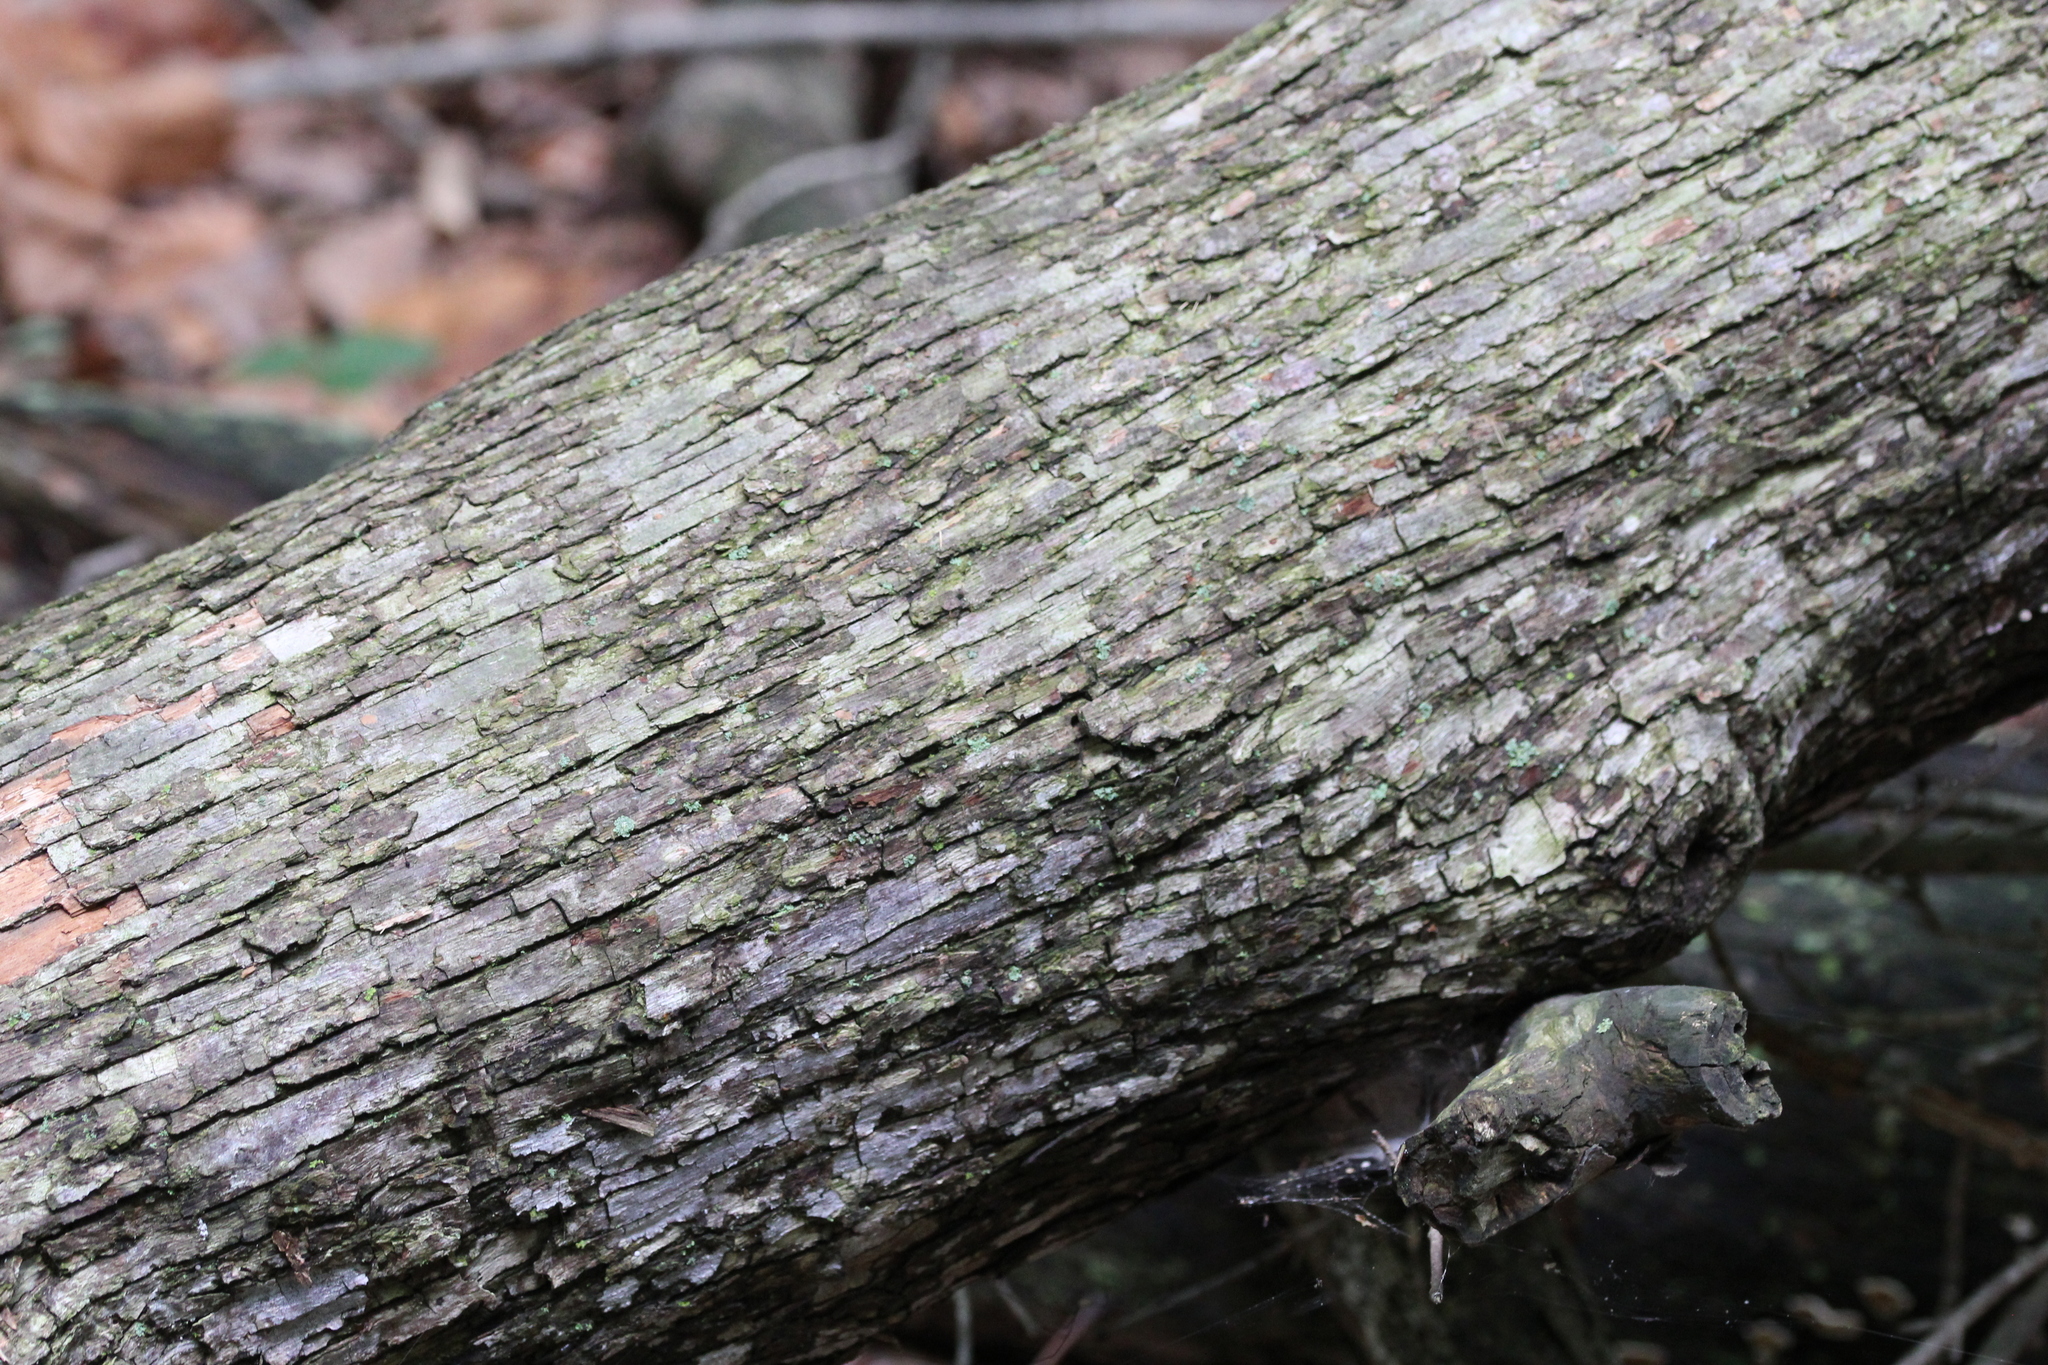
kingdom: Plantae
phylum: Tracheophyta
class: Magnoliopsida
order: Fagales
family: Betulaceae
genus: Ostrya
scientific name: Ostrya virginiana
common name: Ironwood
